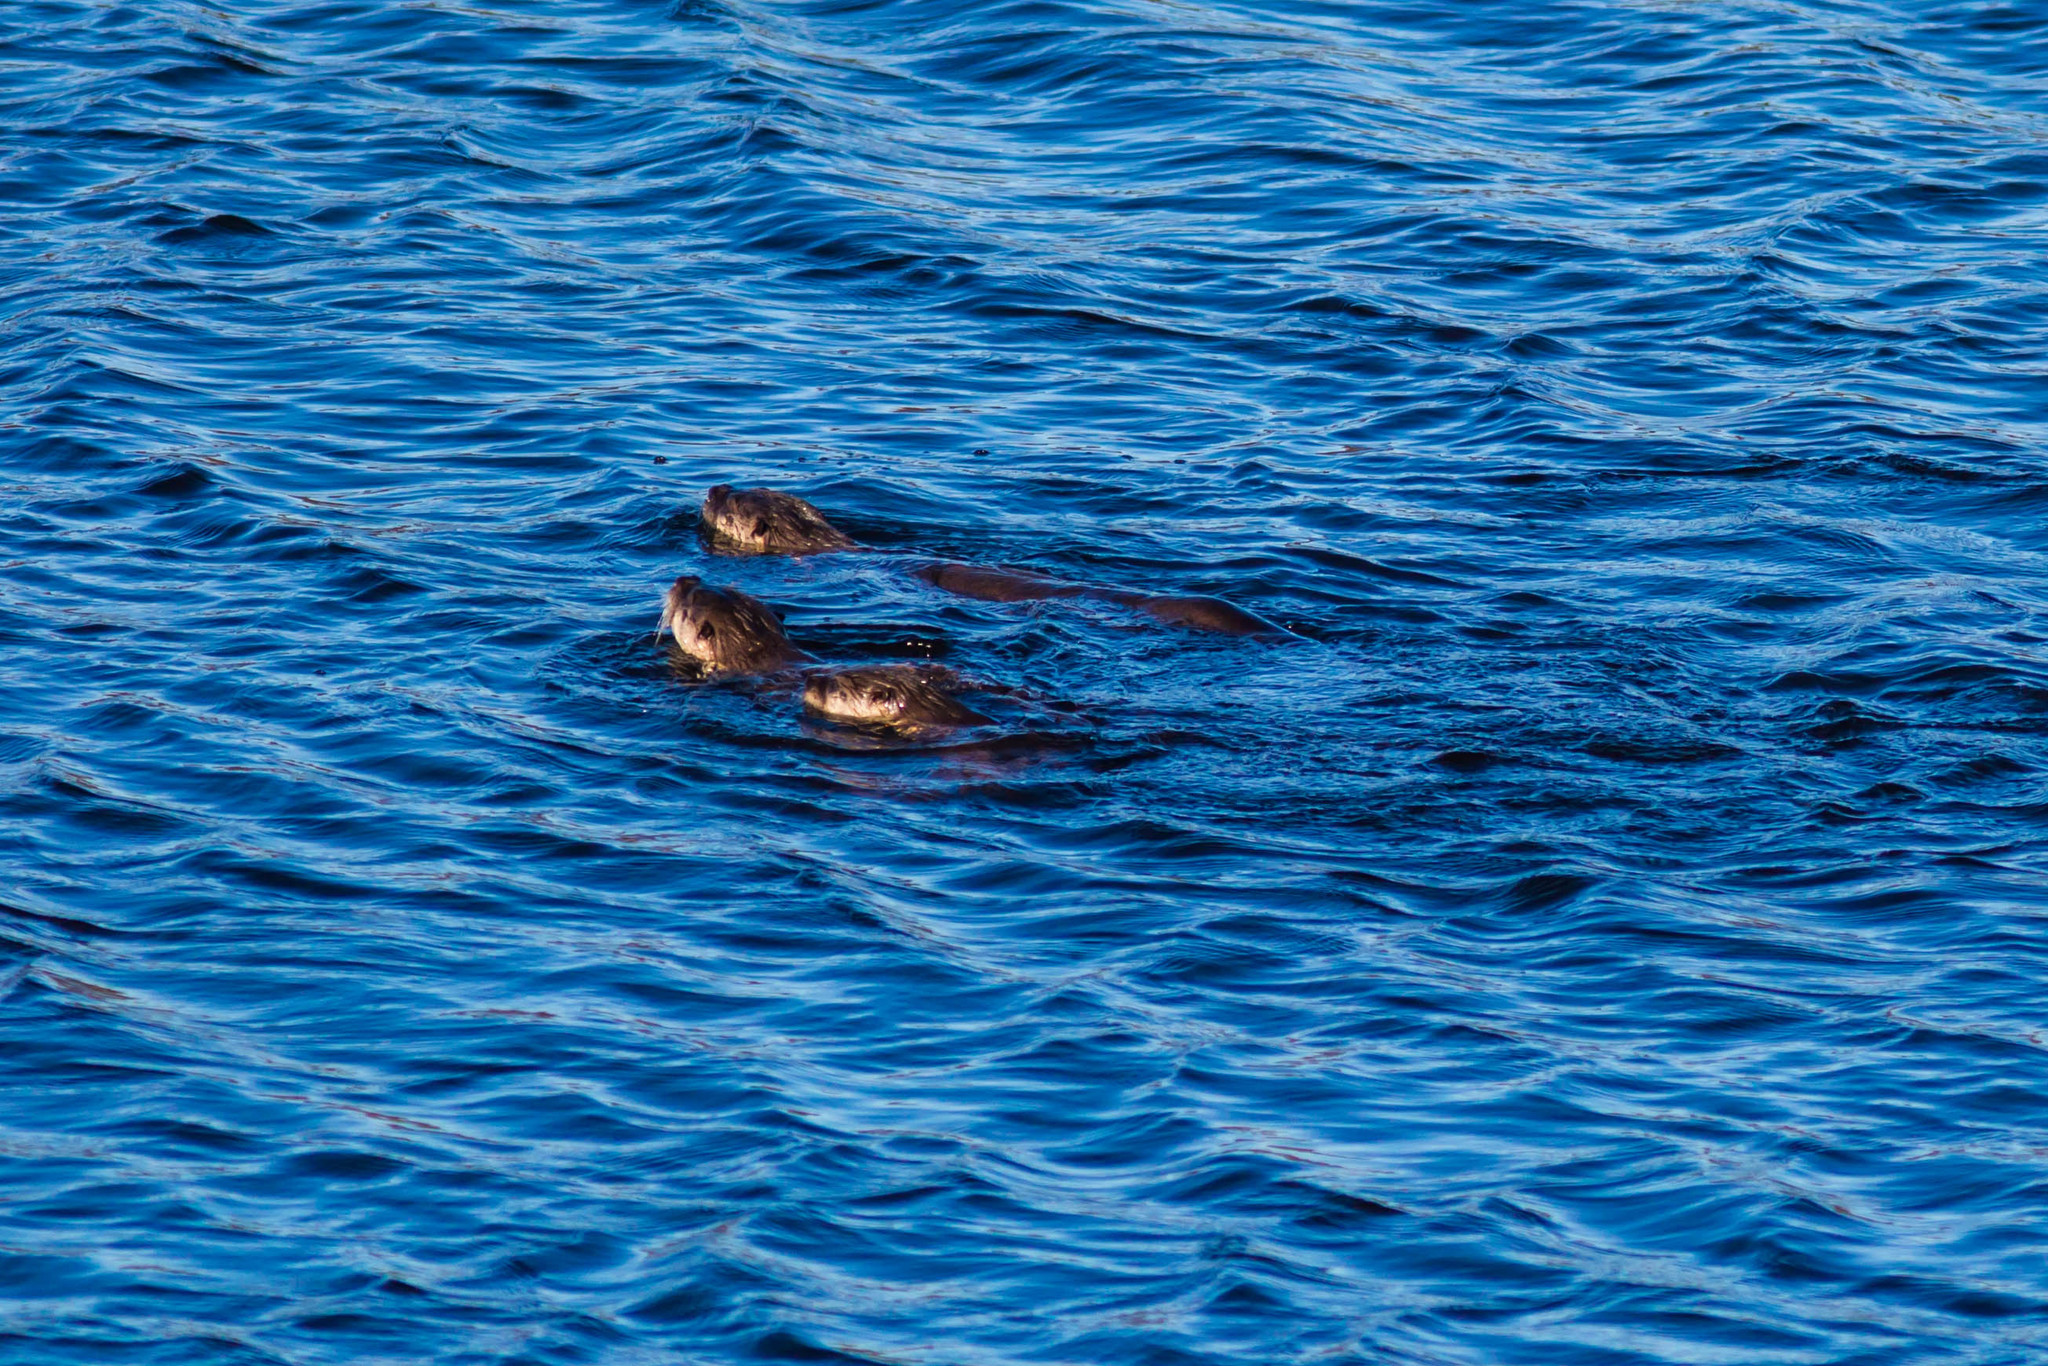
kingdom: Animalia
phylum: Chordata
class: Mammalia
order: Carnivora
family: Mustelidae
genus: Lontra
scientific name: Lontra canadensis
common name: North american river otter
